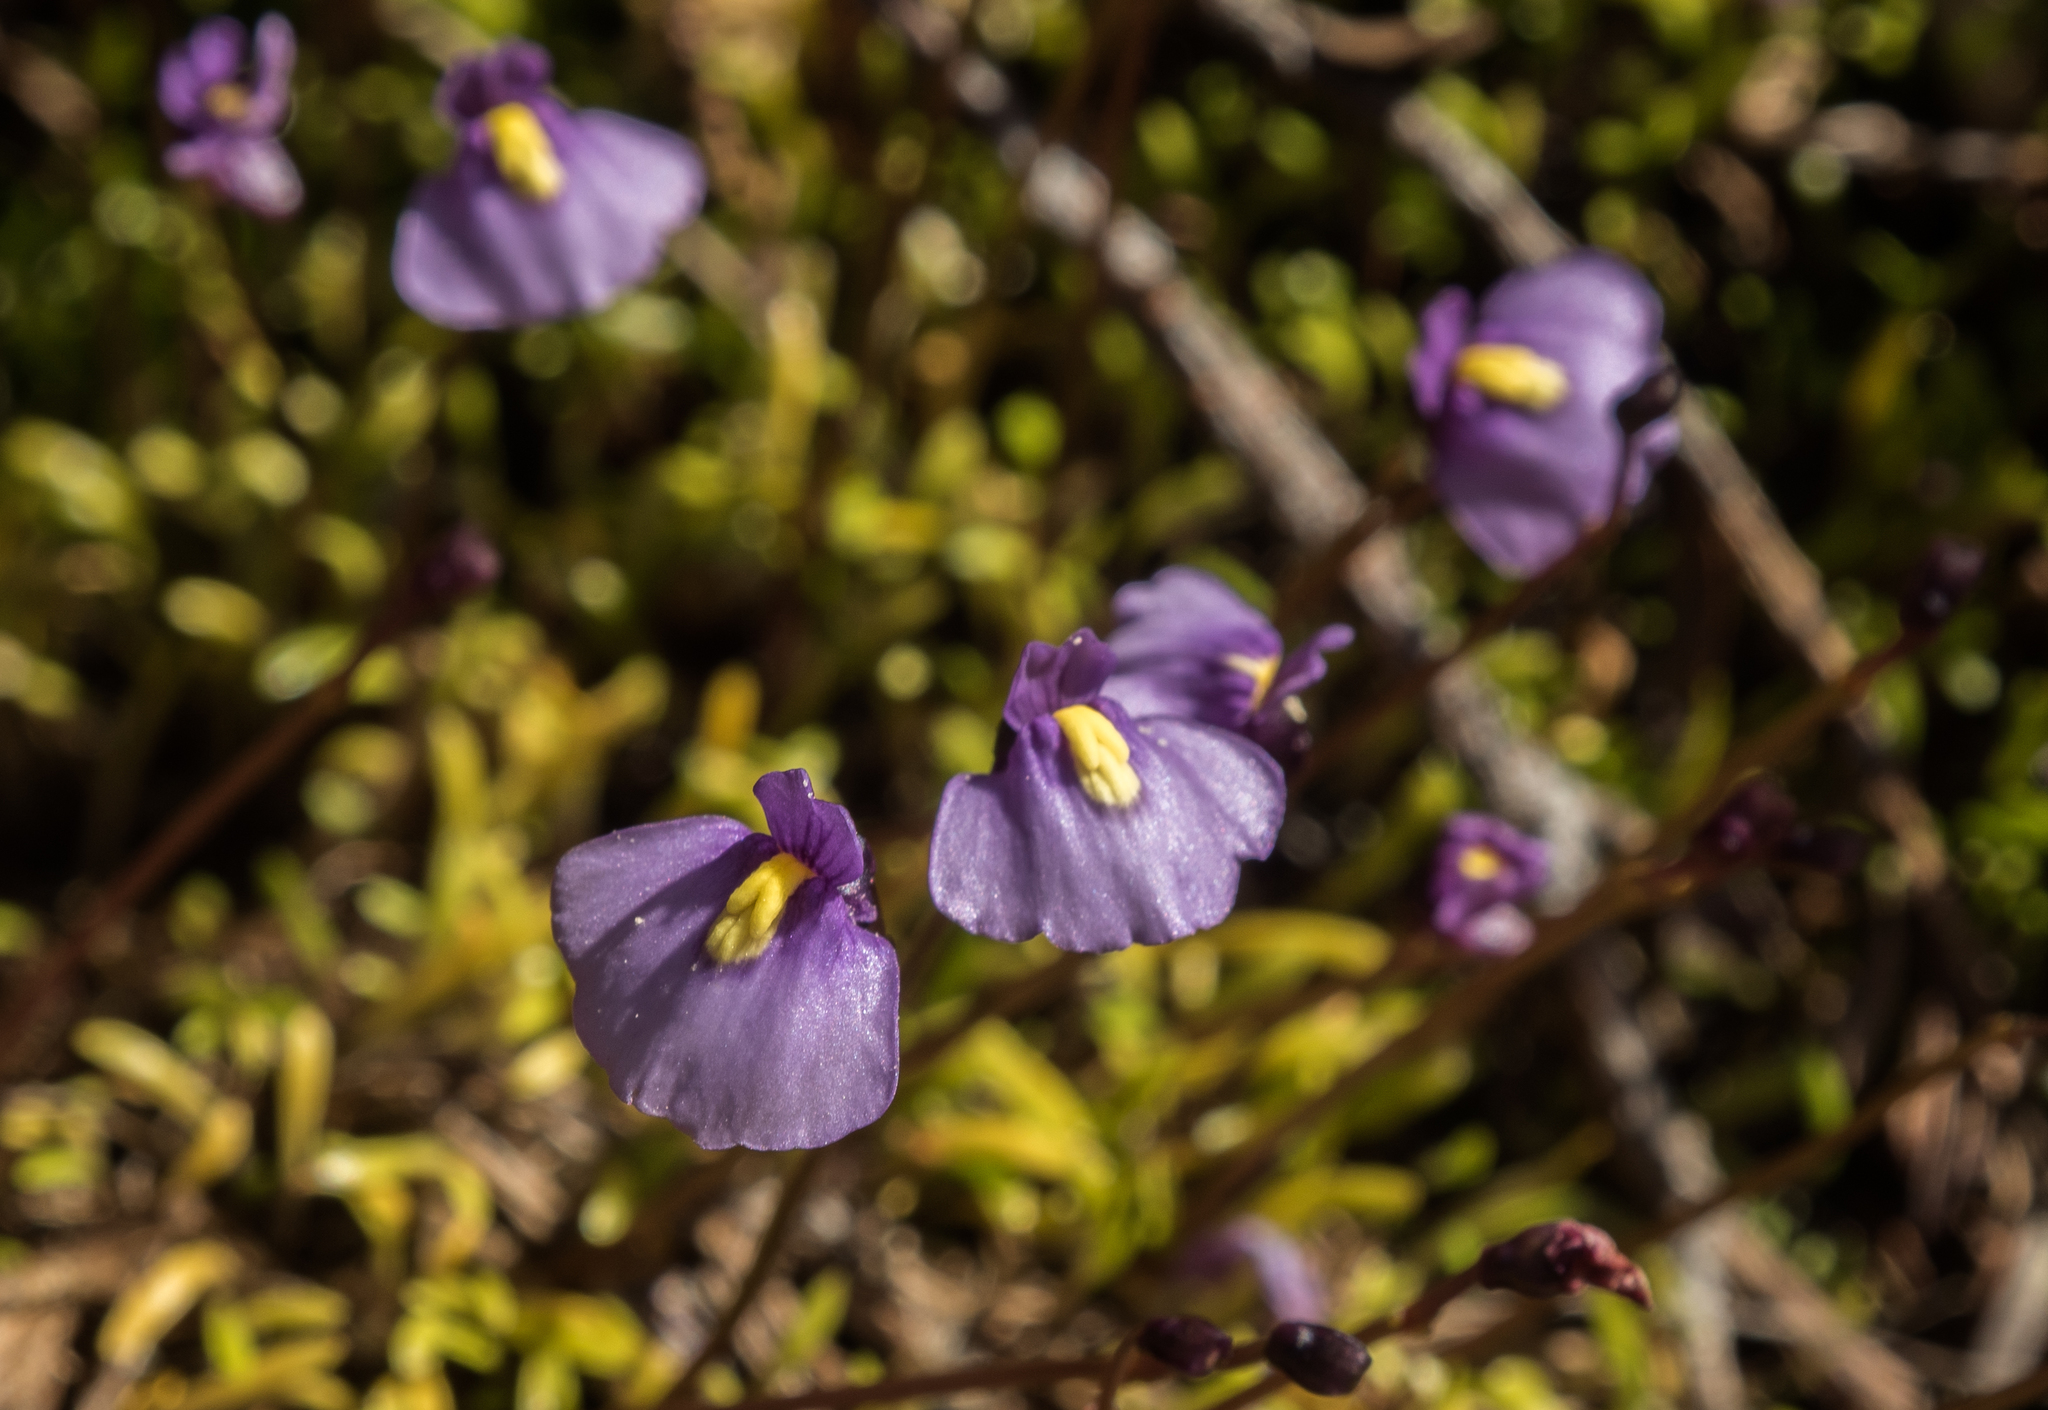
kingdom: Plantae
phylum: Tracheophyta
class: Magnoliopsida
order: Lamiales
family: Lentibulariaceae
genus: Utricularia
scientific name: Utricularia dichotoma
